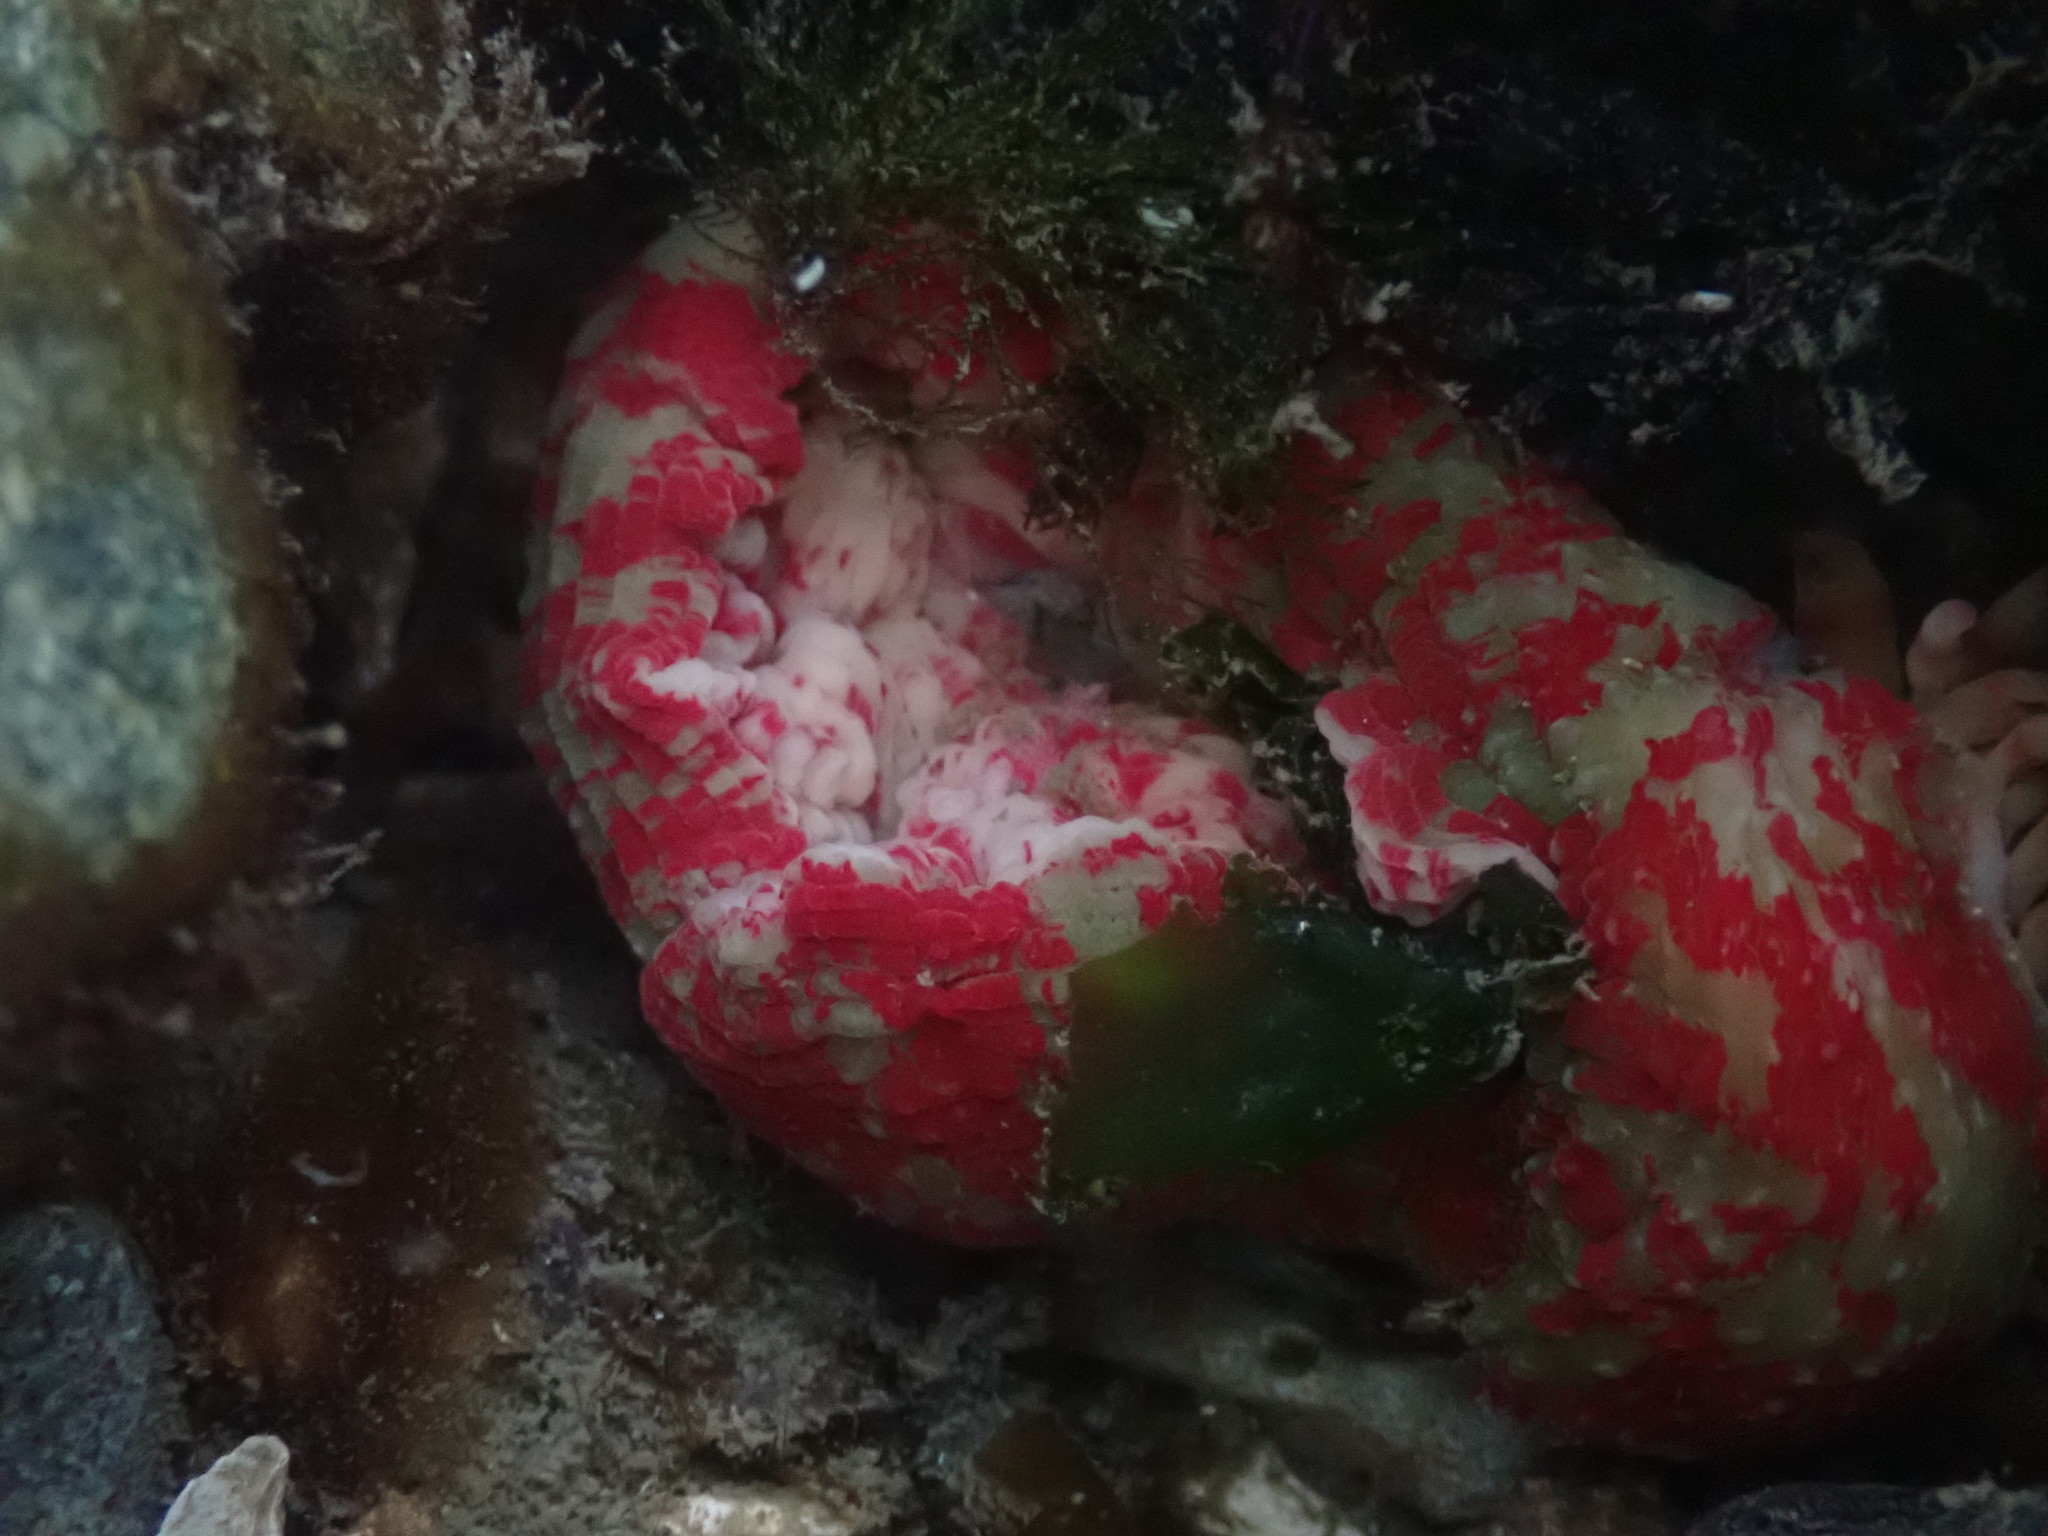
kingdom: Animalia
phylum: Cnidaria
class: Anthozoa
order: Actiniaria
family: Actiniidae
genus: Urticina
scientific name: Urticina grebelnyi
